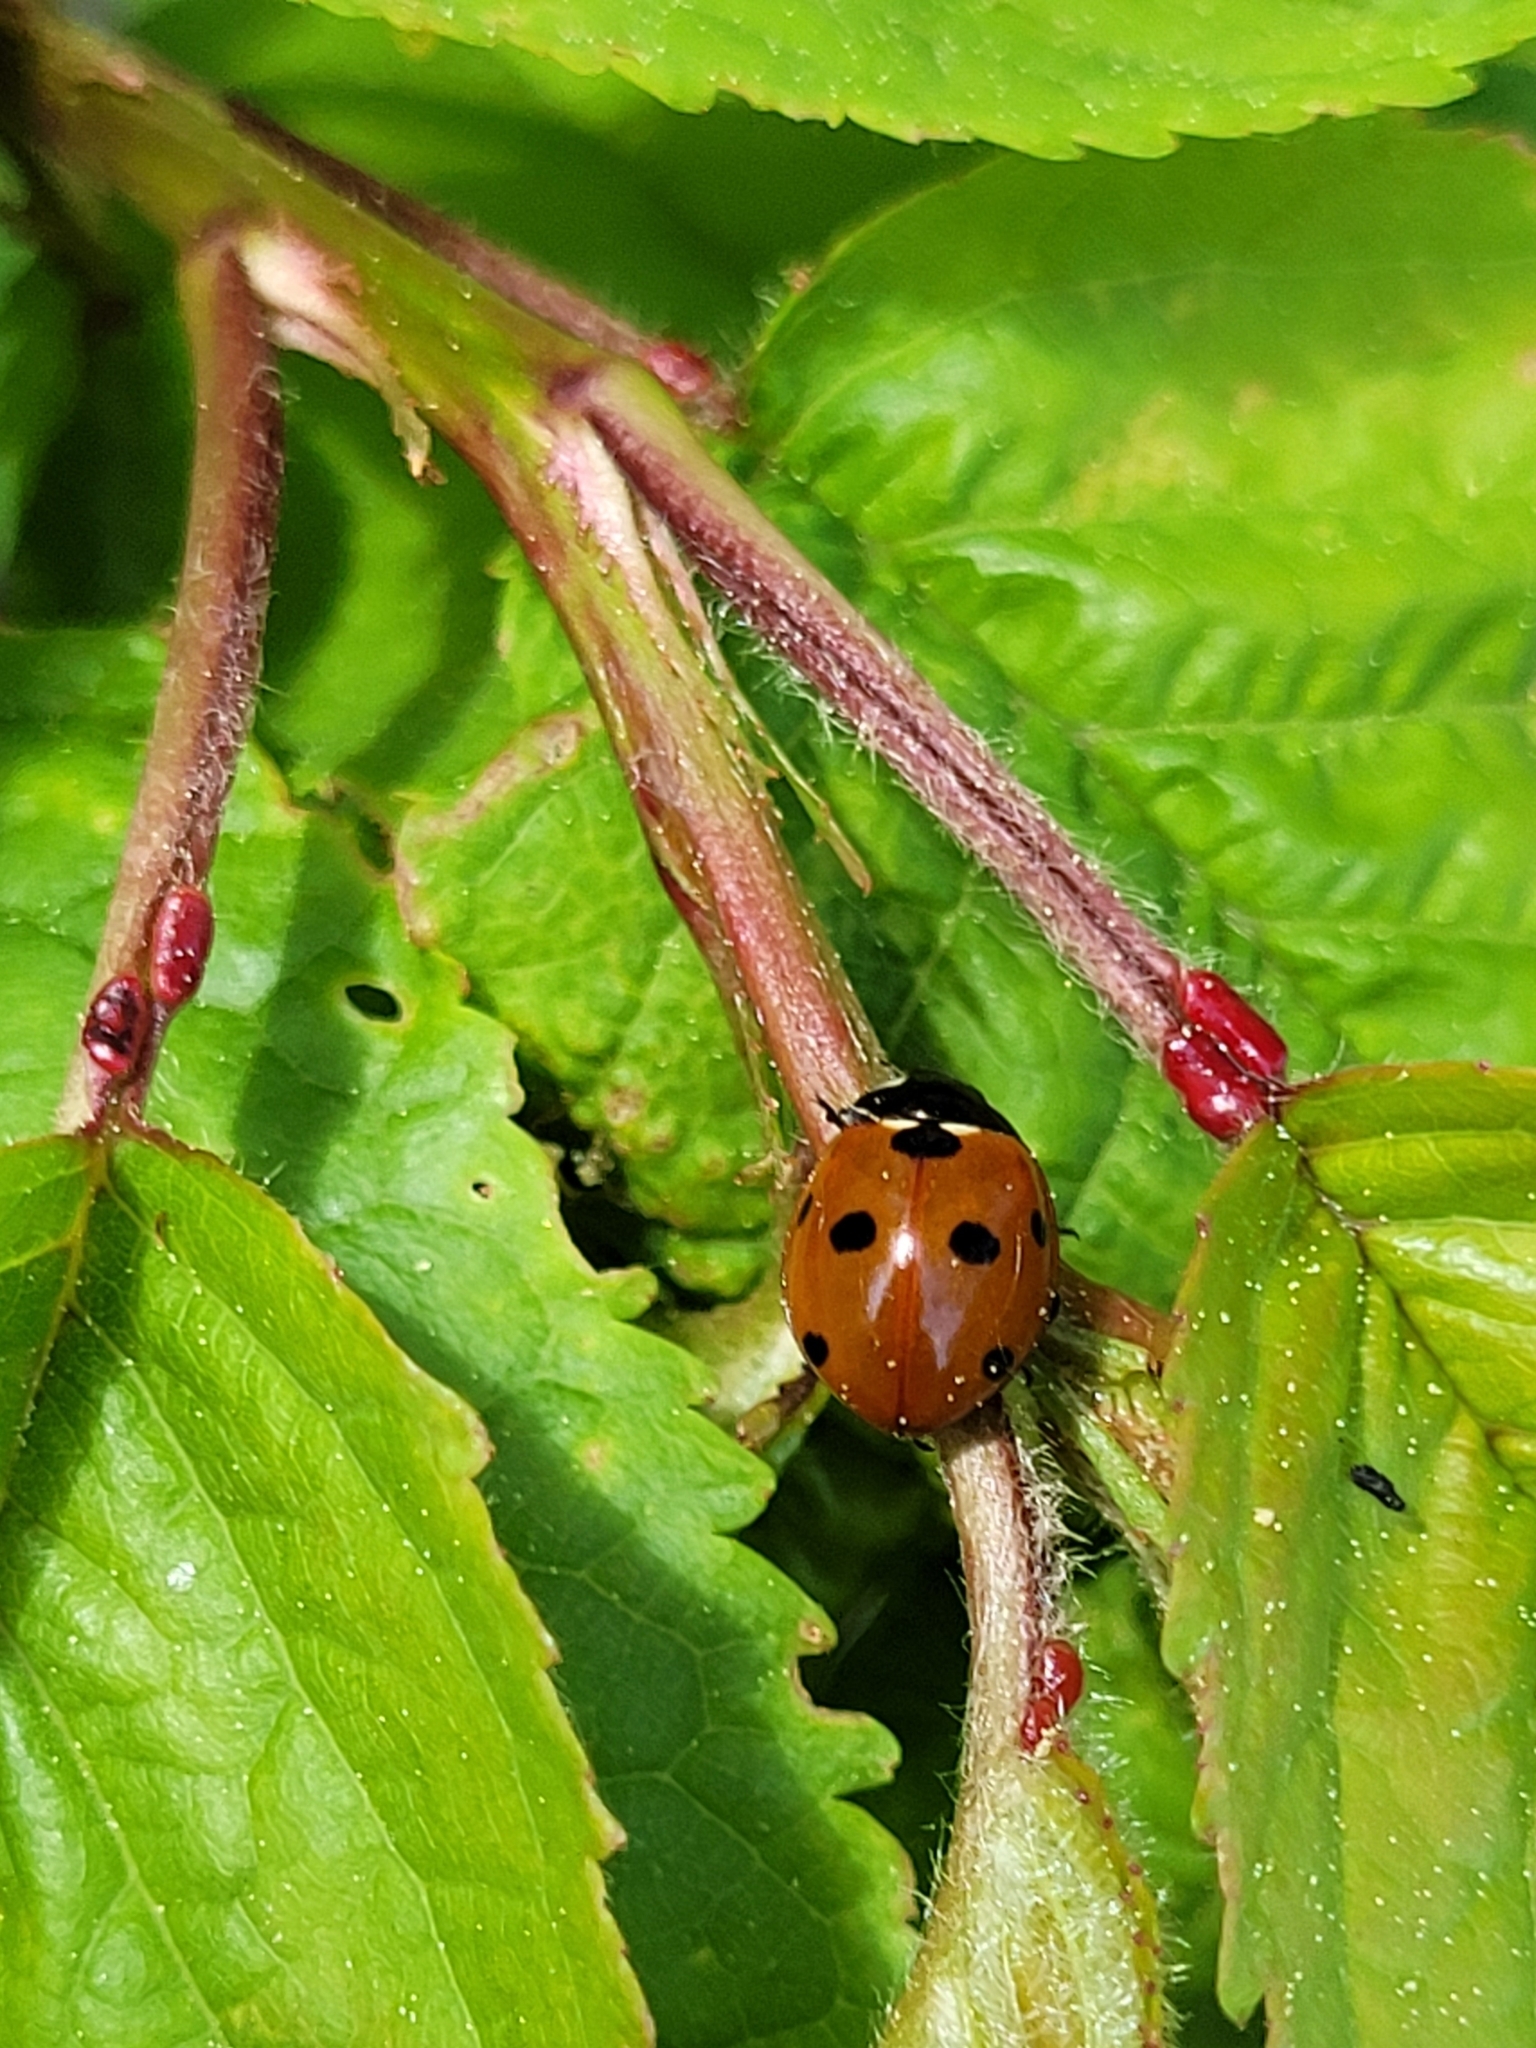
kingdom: Animalia
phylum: Arthropoda
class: Insecta
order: Coleoptera
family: Coccinellidae
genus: Coccinella
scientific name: Coccinella septempunctata
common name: Sevenspotted lady beetle
